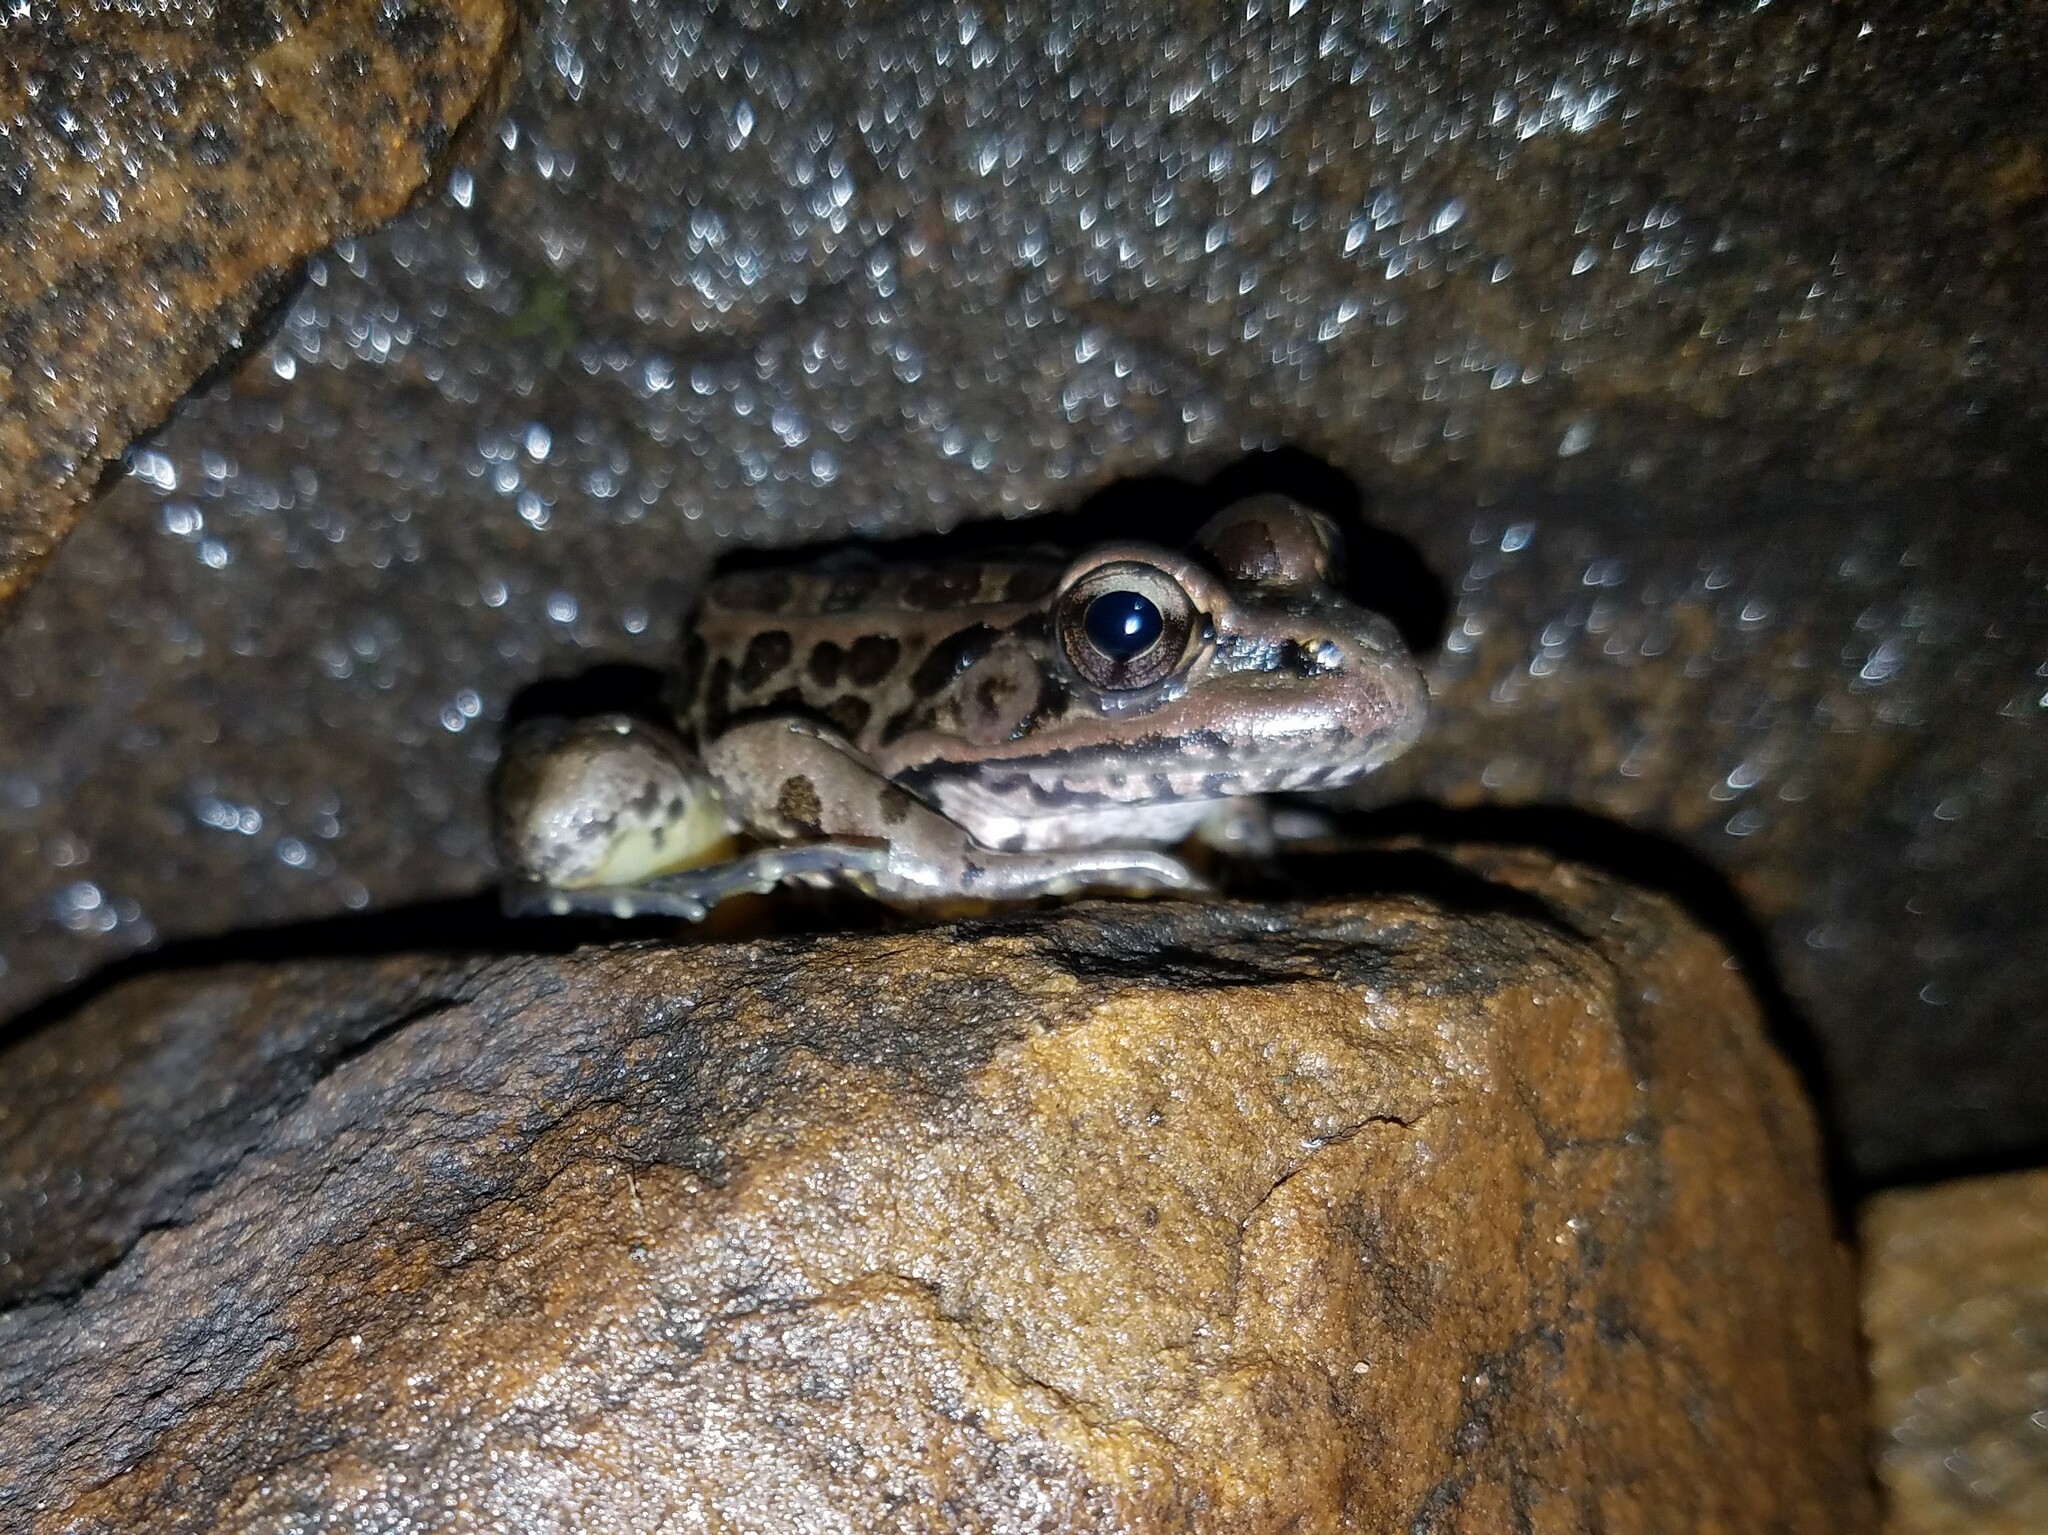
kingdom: Animalia
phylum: Chordata
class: Amphibia
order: Anura
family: Ranidae
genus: Lithobates
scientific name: Lithobates palustris
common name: Pickerel frog
